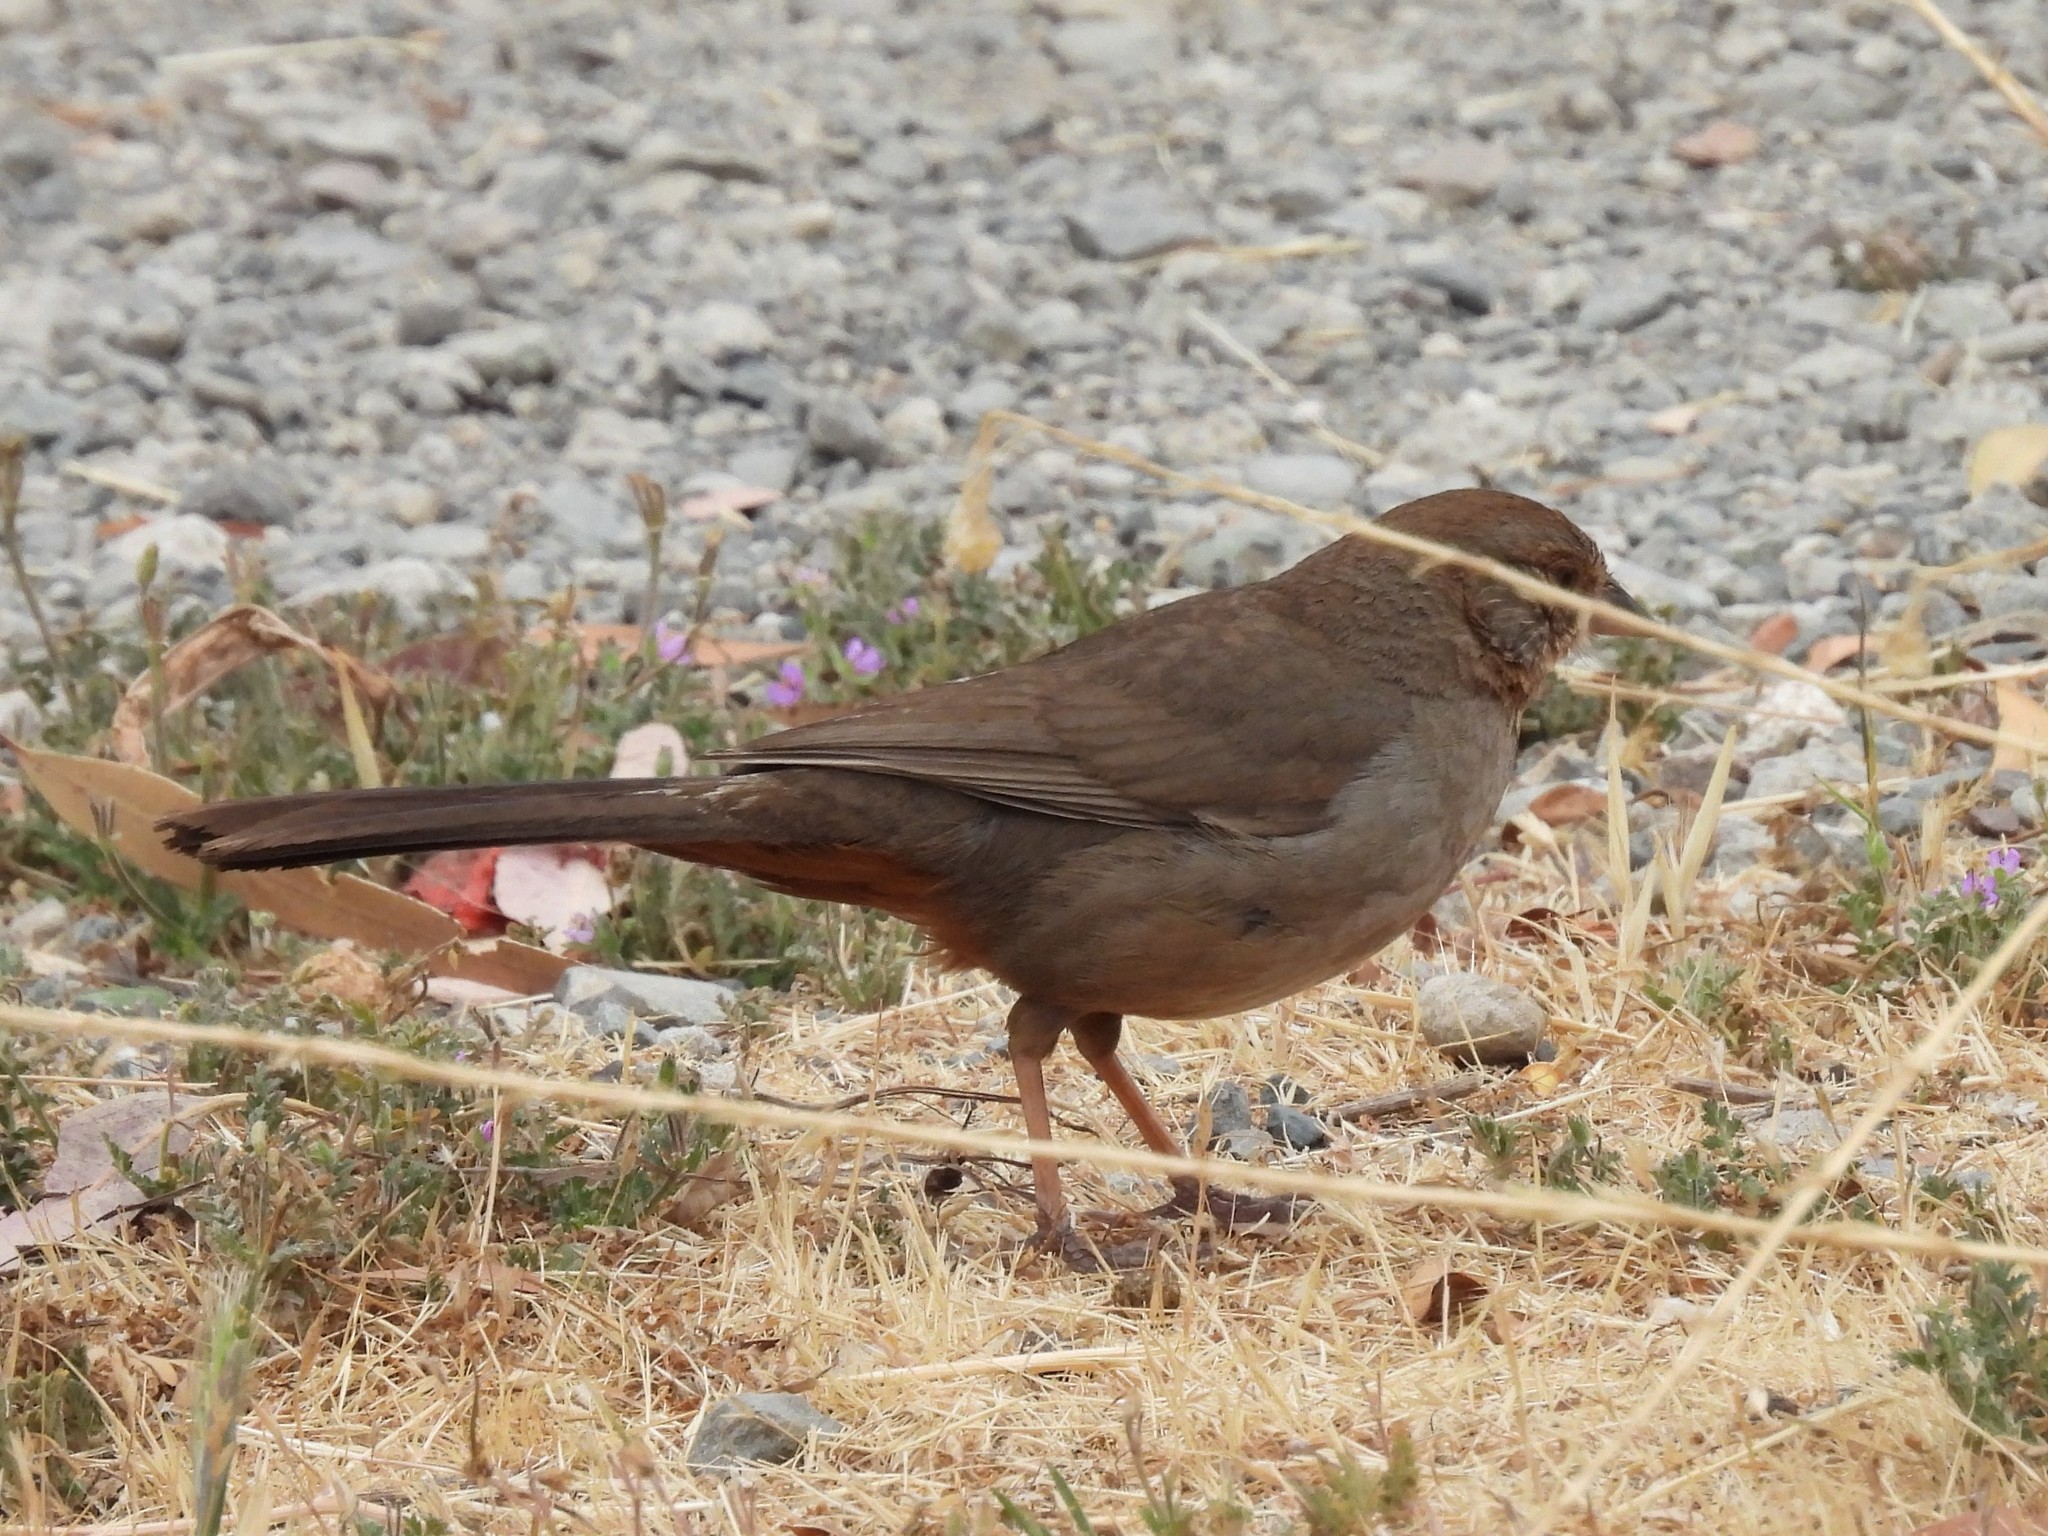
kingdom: Animalia
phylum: Chordata
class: Aves
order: Passeriformes
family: Passerellidae
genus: Melozone
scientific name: Melozone crissalis
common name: California towhee
